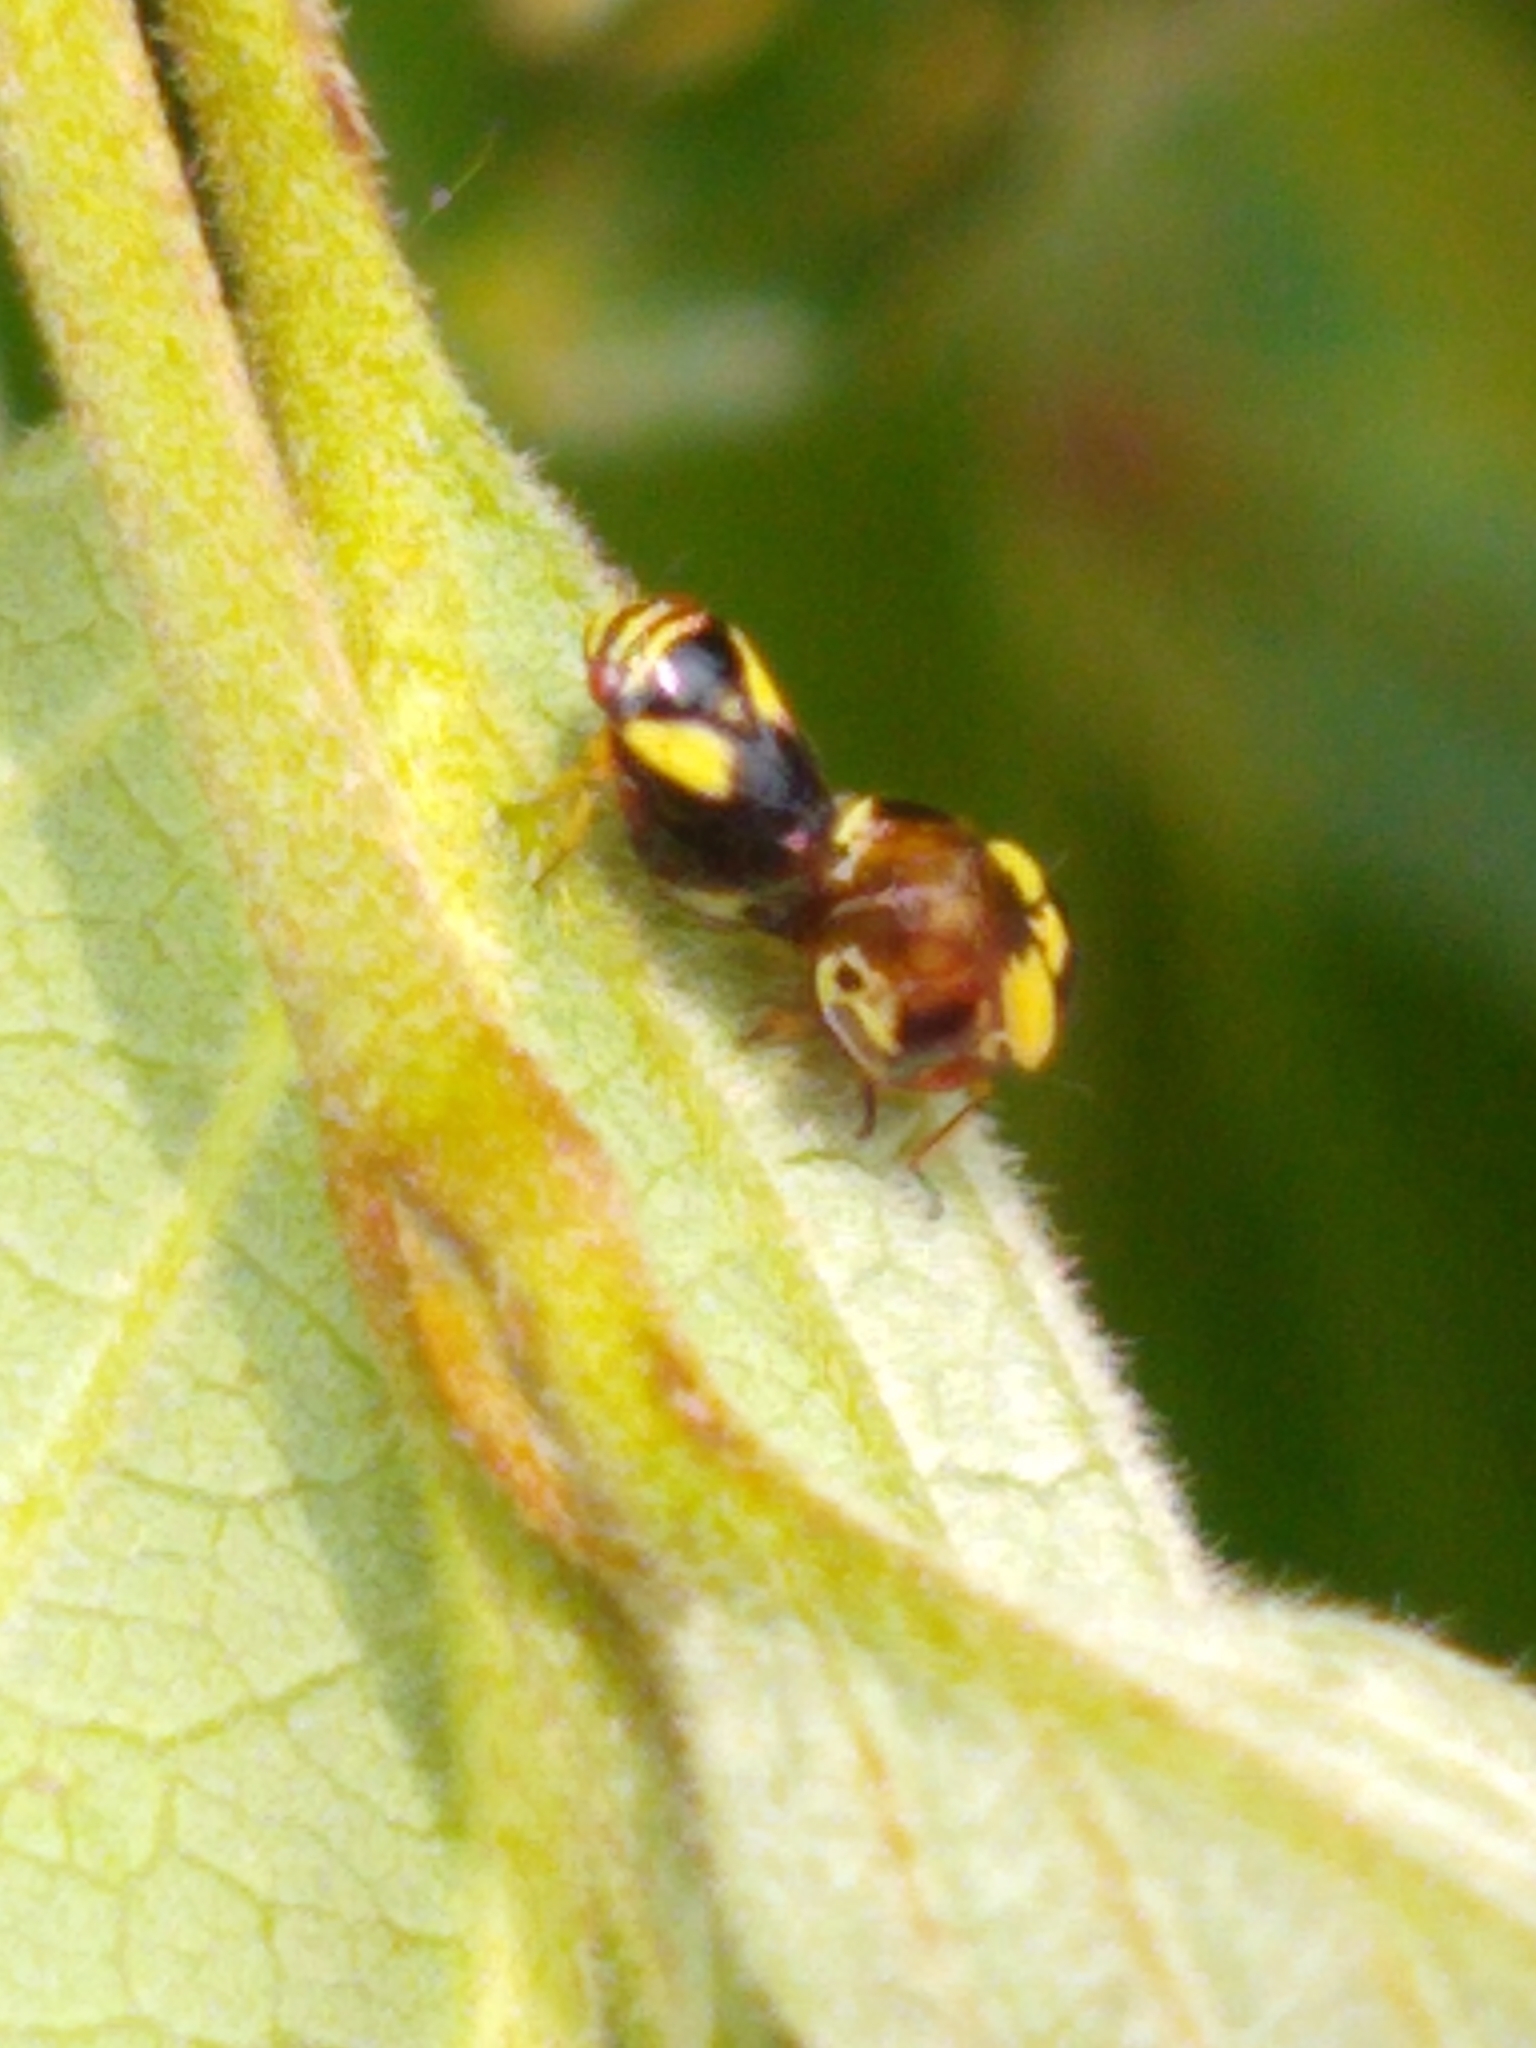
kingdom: Animalia
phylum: Arthropoda
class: Insecta
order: Hemiptera
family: Clastopteridae
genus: Clastoptera
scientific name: Clastoptera proteus
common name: Dogwood spittlebug
